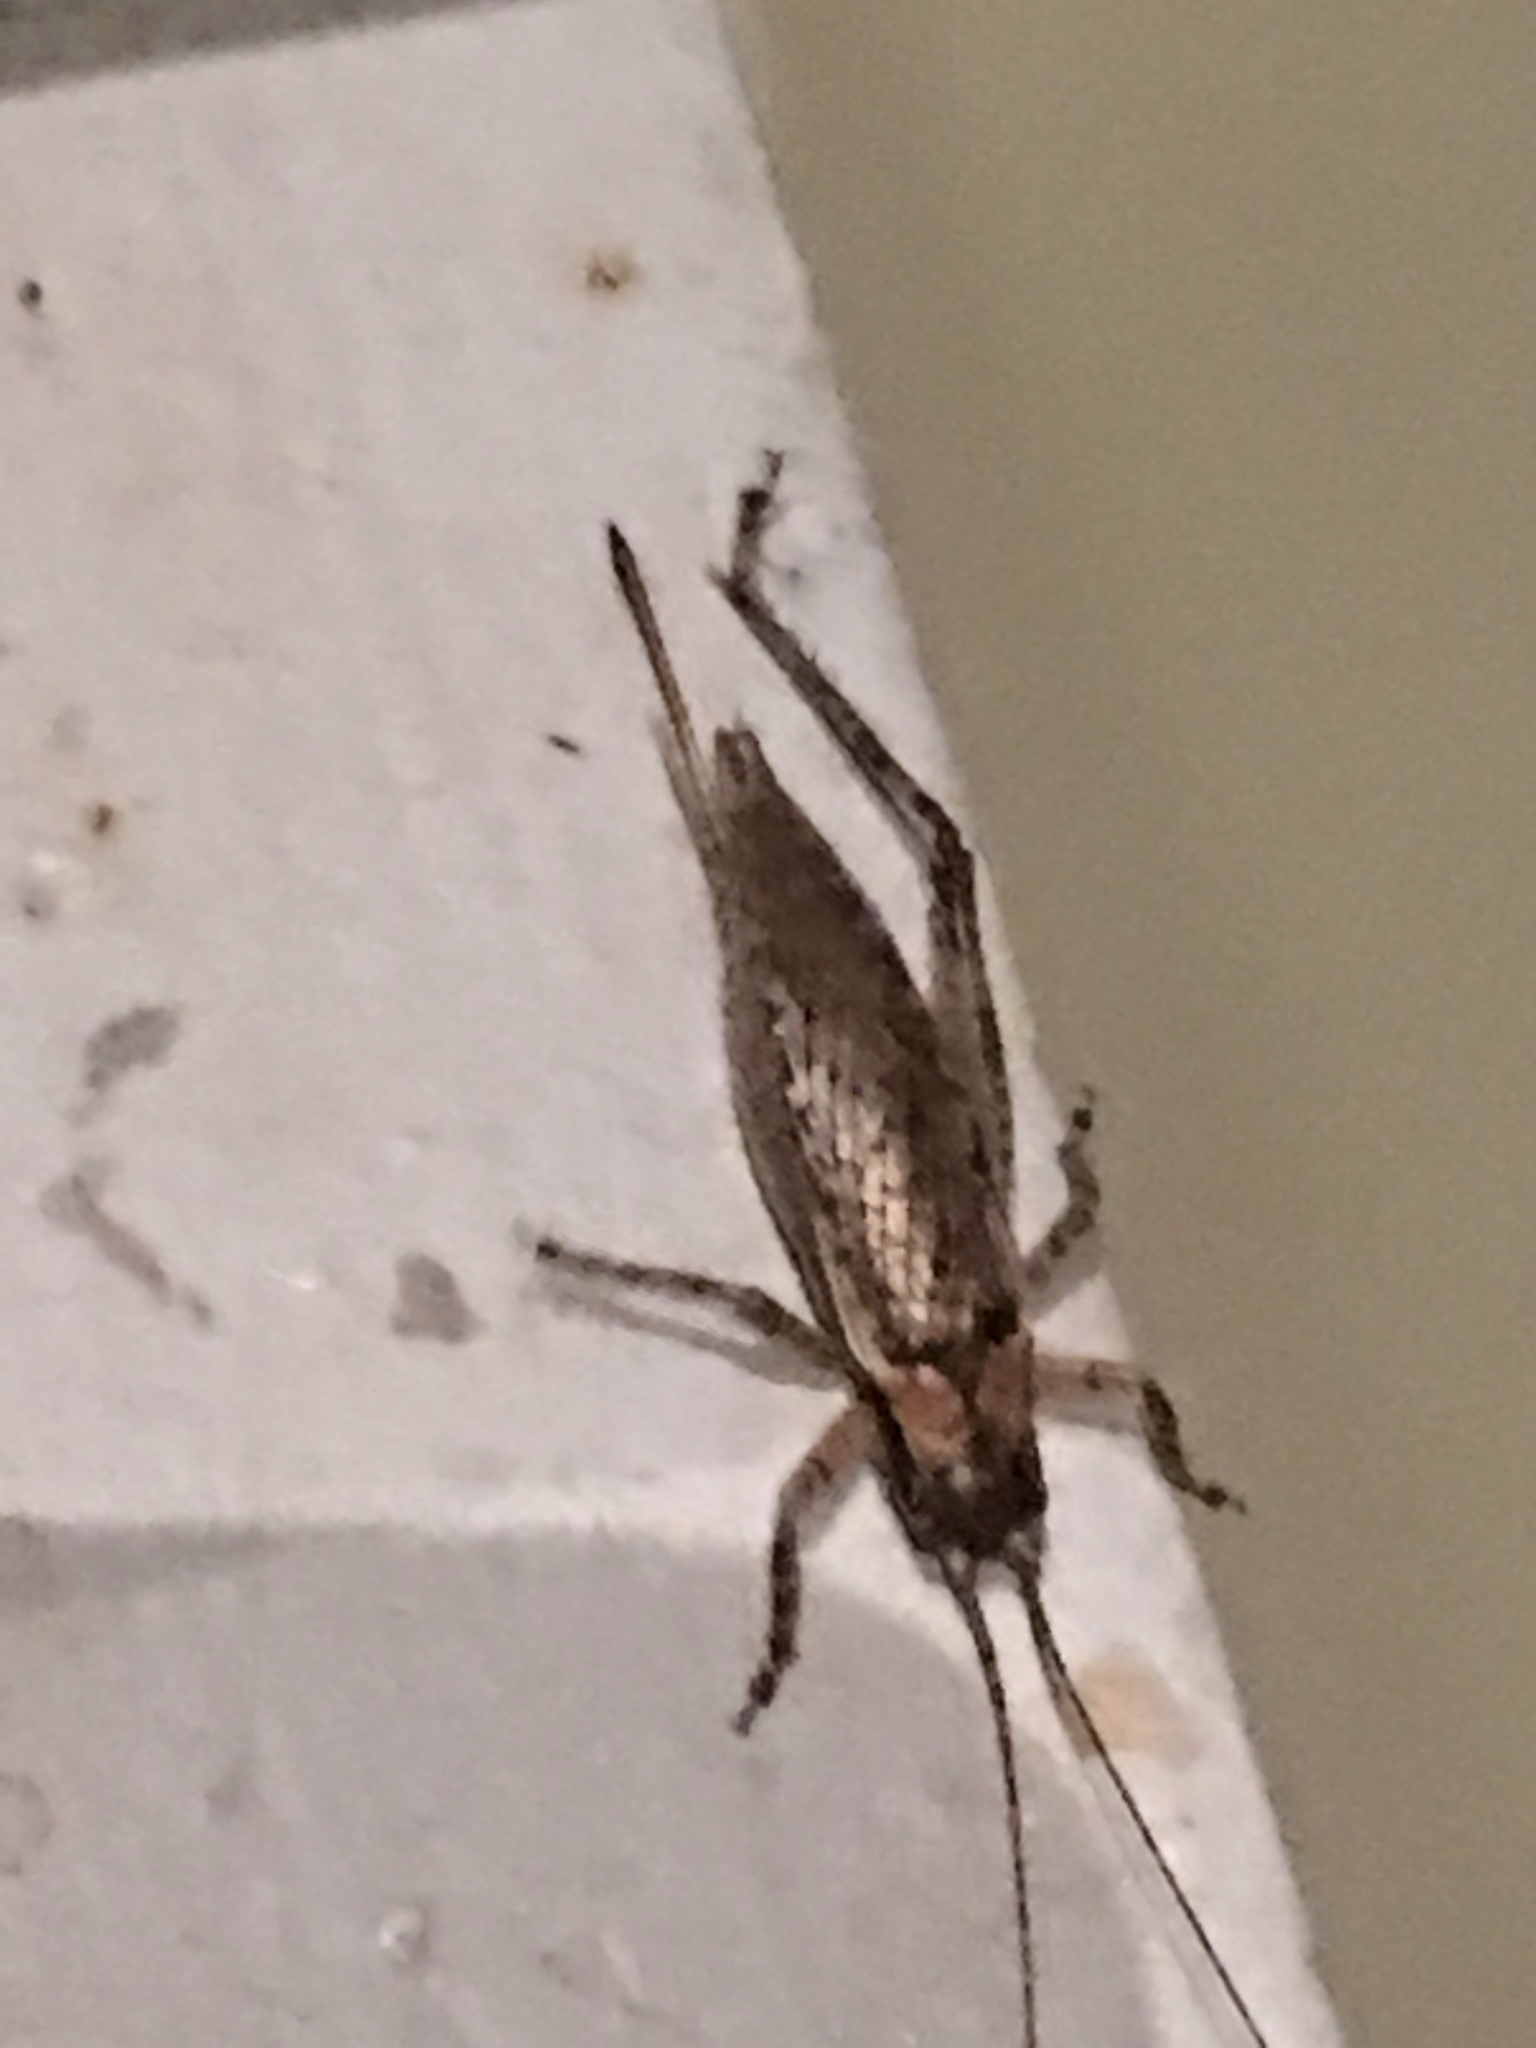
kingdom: Animalia
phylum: Arthropoda
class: Insecta
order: Orthoptera
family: Gryllidae
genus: Hapithus
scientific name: Hapithus saltator
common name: Jumping bush cricket
